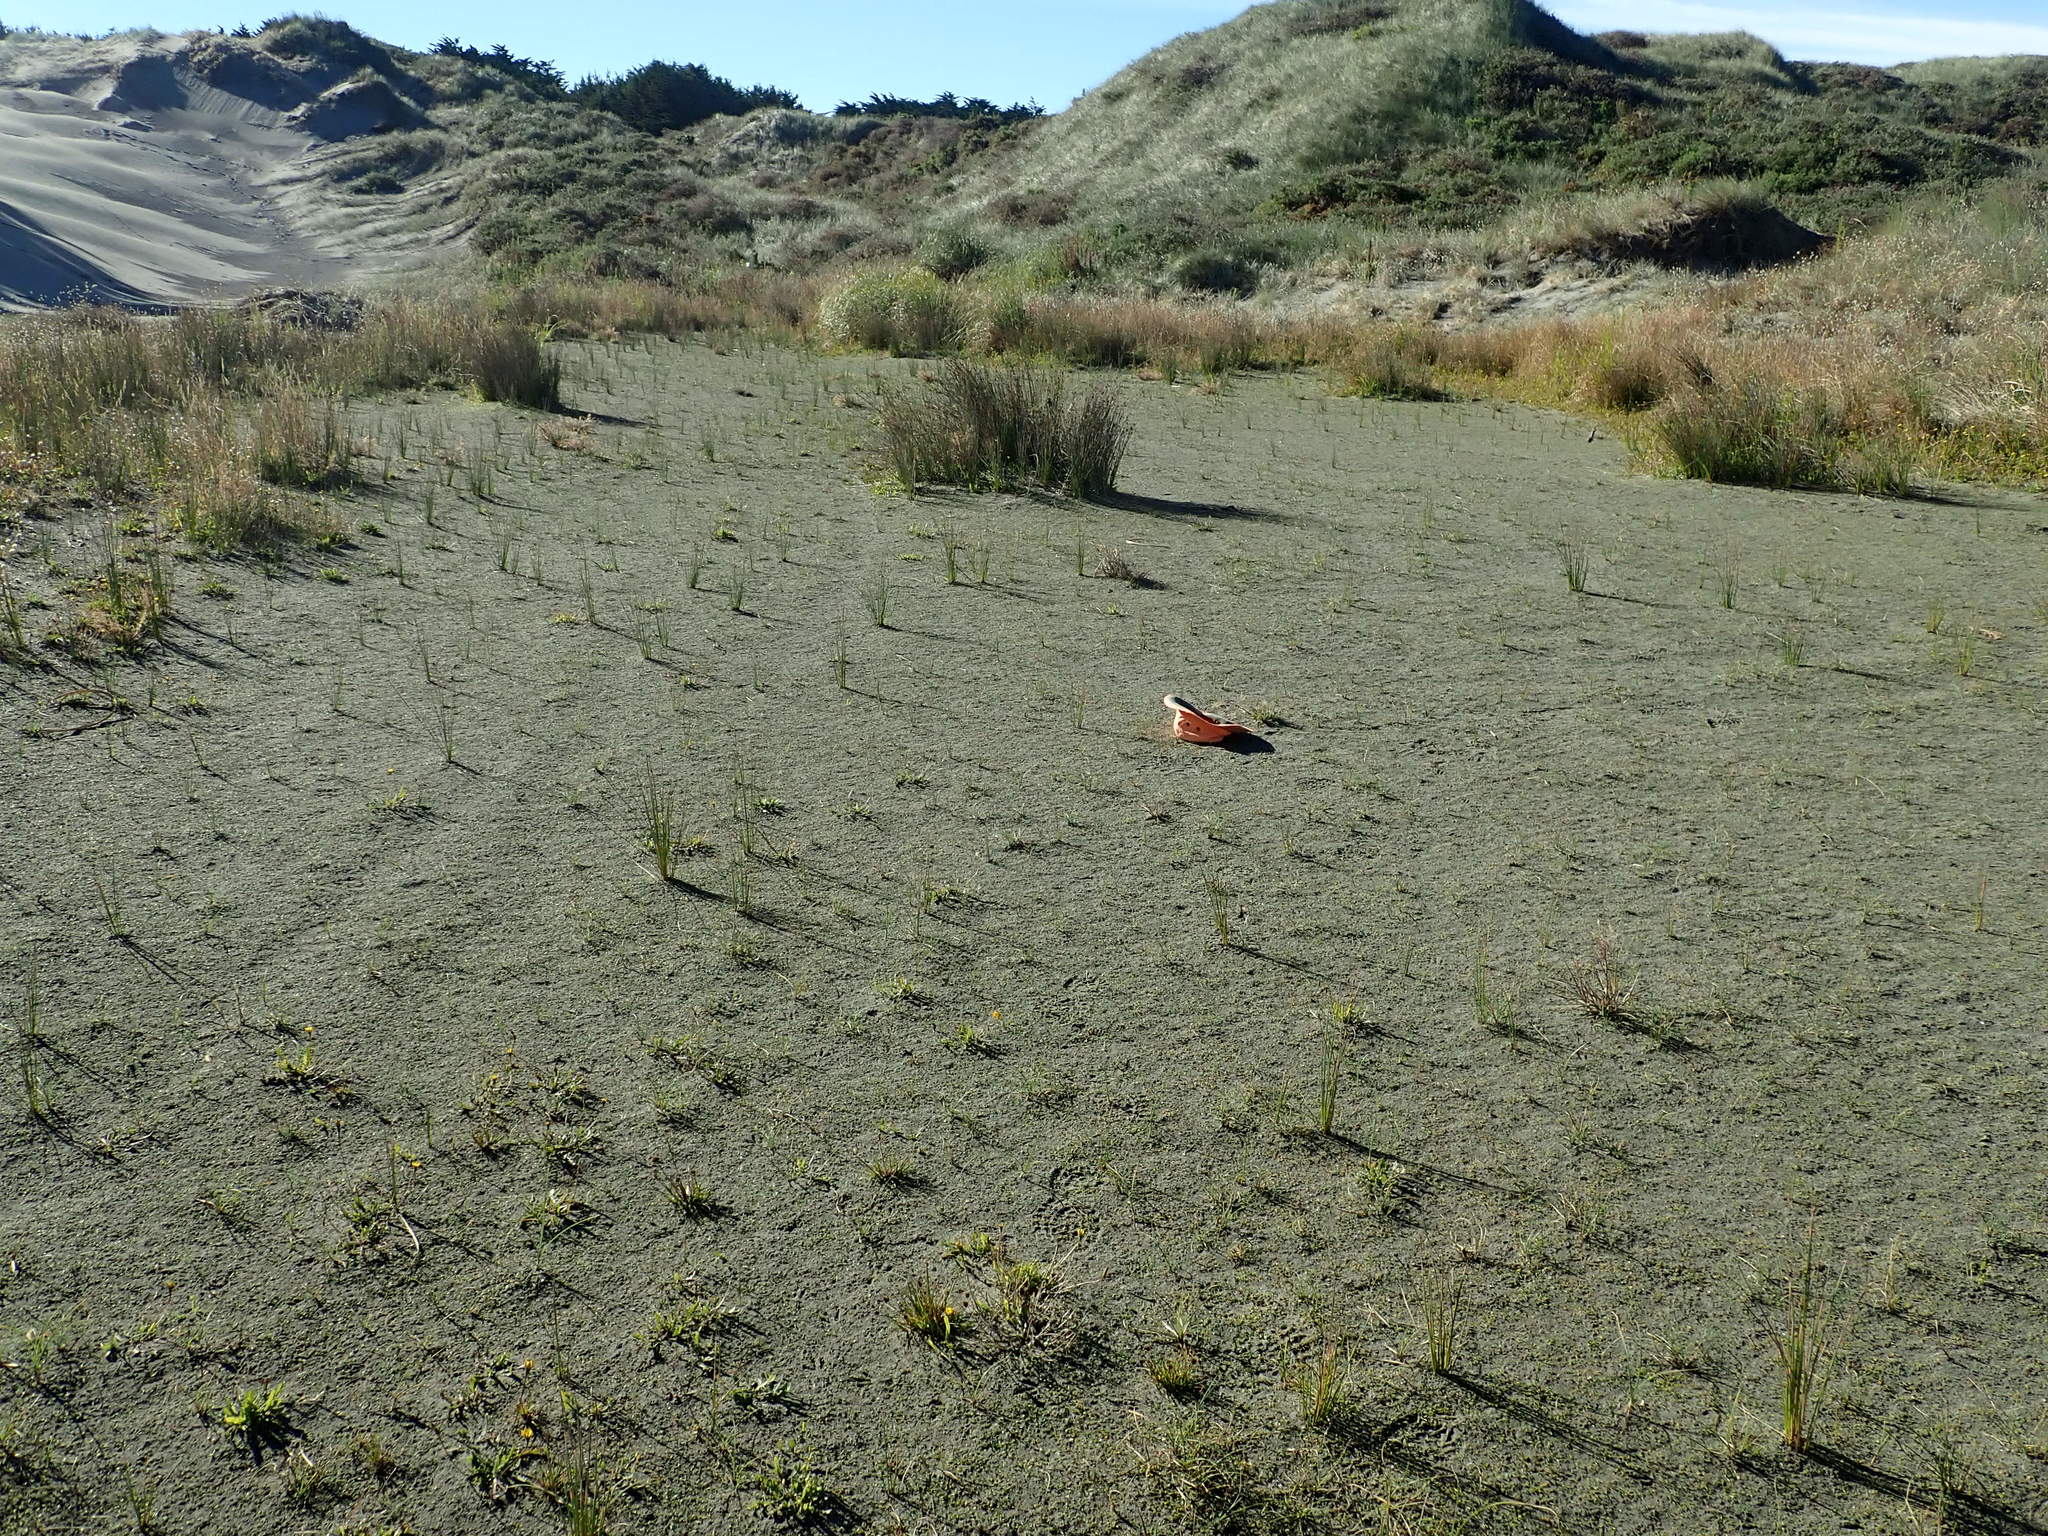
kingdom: Plantae
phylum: Tracheophyta
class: Magnoliopsida
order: Apiales
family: Apiaceae
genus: Lilaeopsis
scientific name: Lilaeopsis novae-zelandiae
